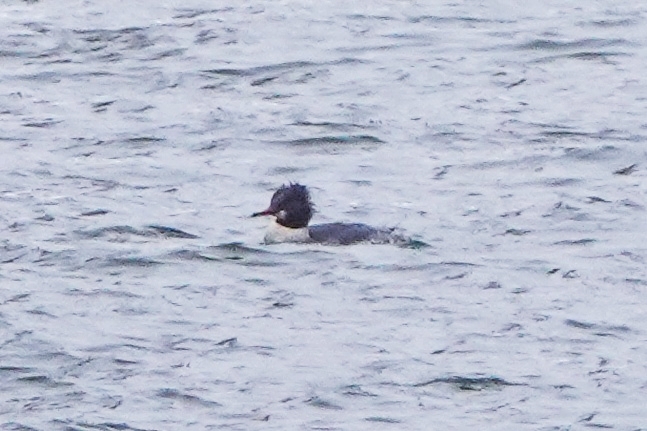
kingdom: Animalia
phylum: Chordata
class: Aves
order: Anseriformes
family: Anatidae
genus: Mergus
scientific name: Mergus merganser
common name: Common merganser
